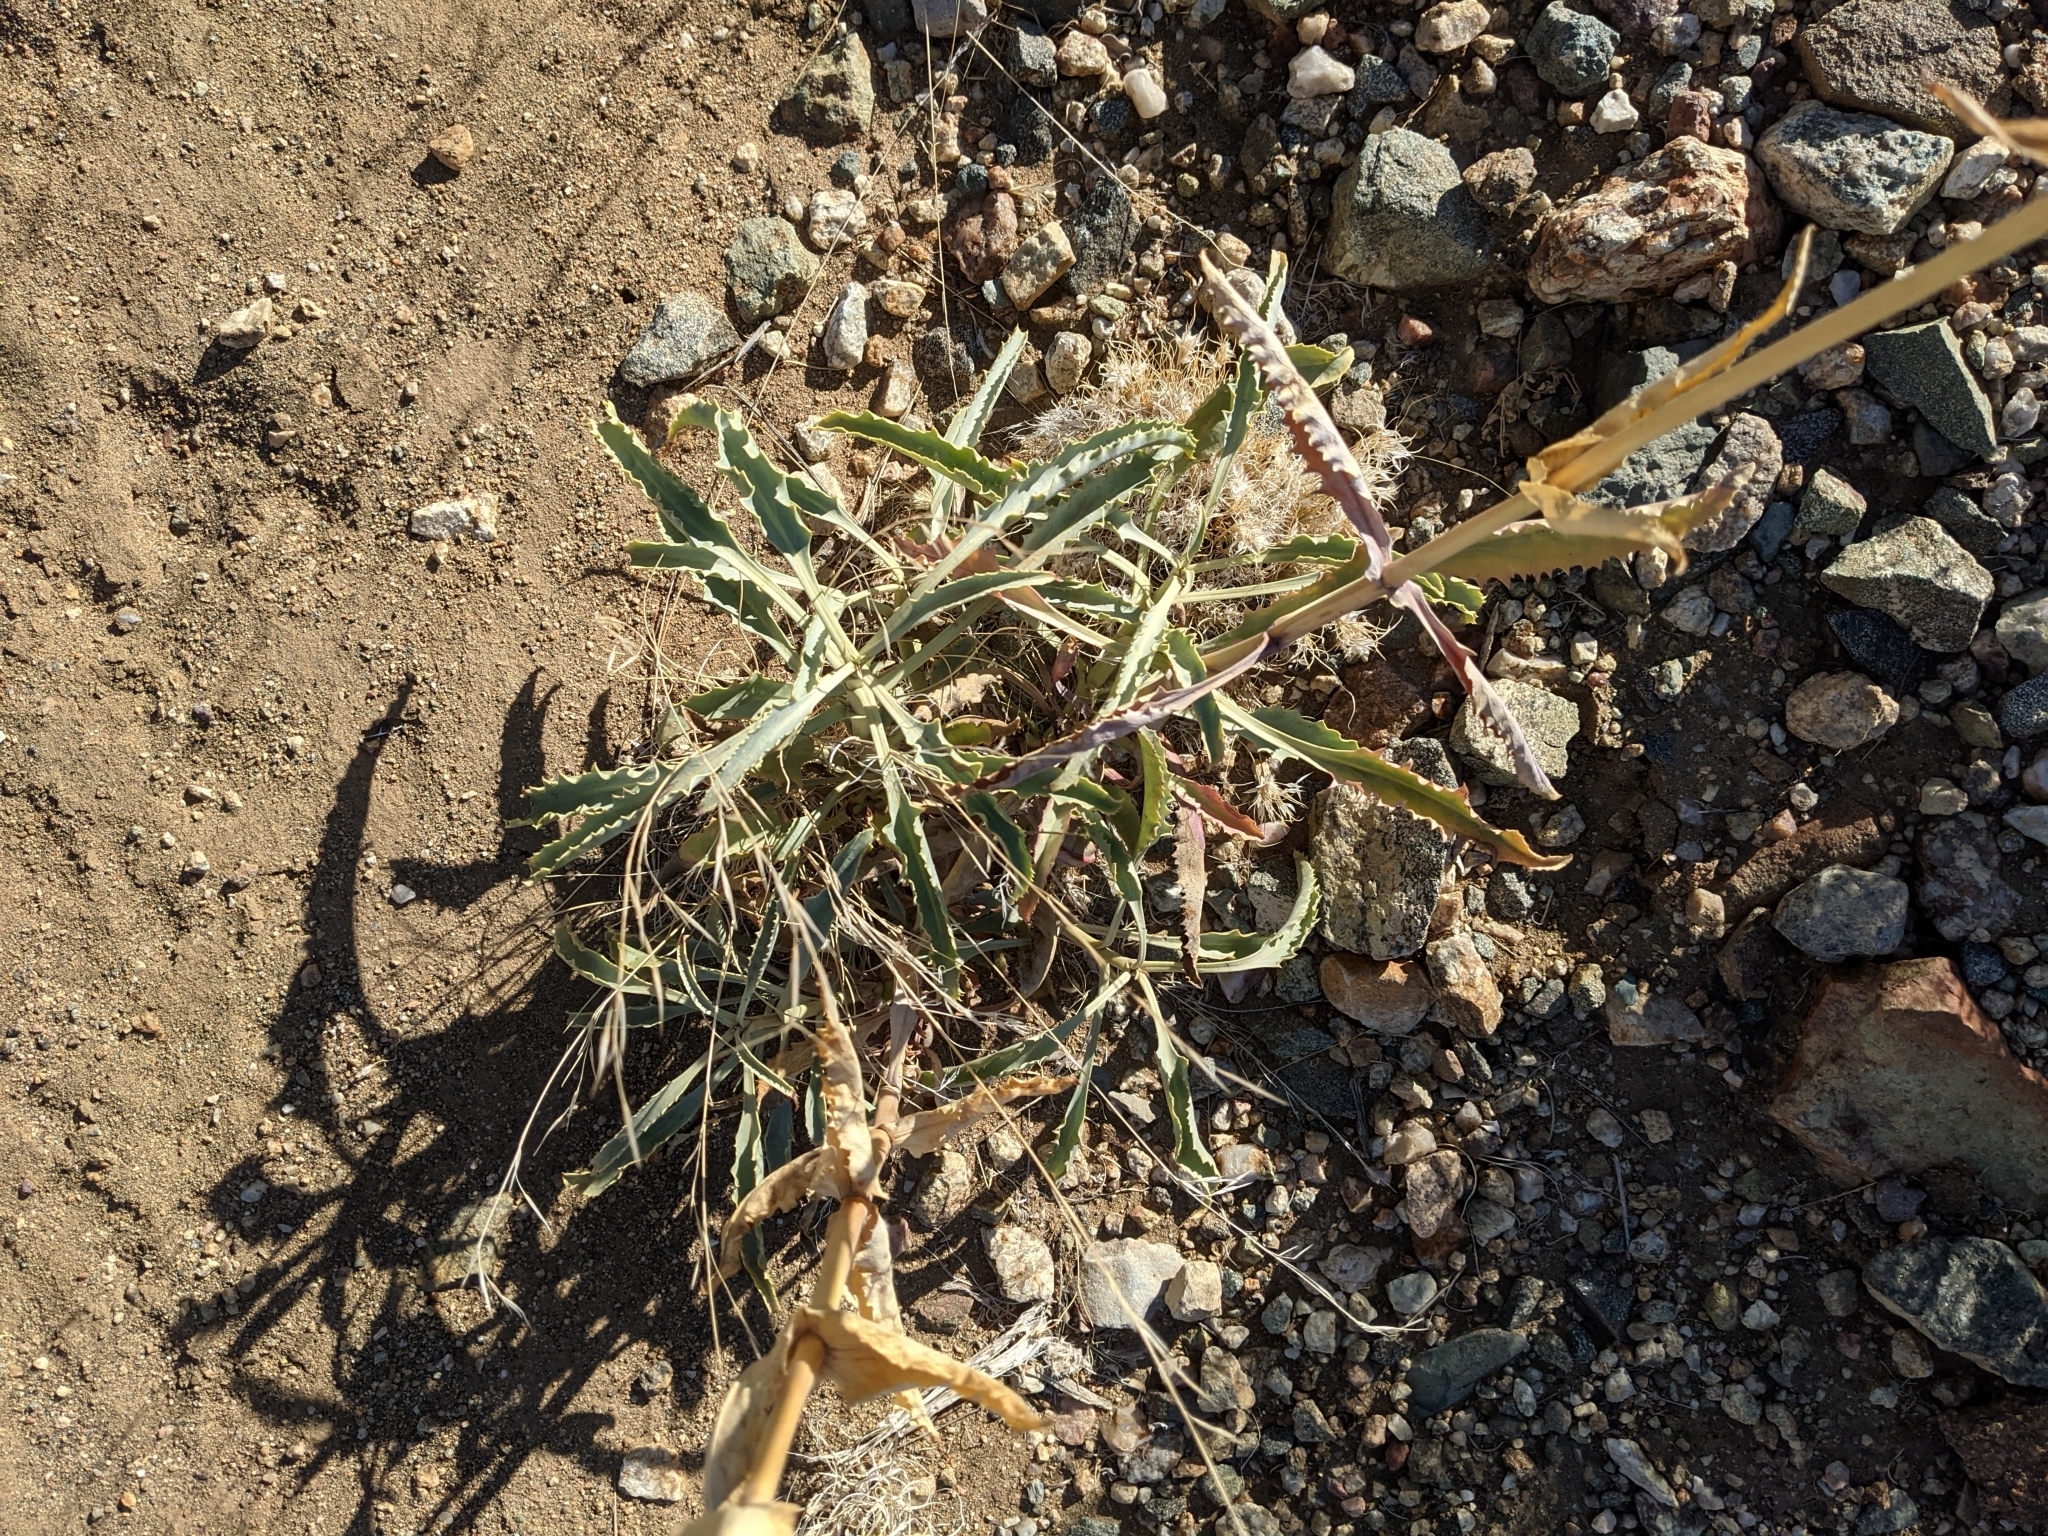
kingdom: Plantae
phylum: Tracheophyta
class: Magnoliopsida
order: Lamiales
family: Plantaginaceae
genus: Penstemon
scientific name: Penstemon palmeri
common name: Palmer penstemon
